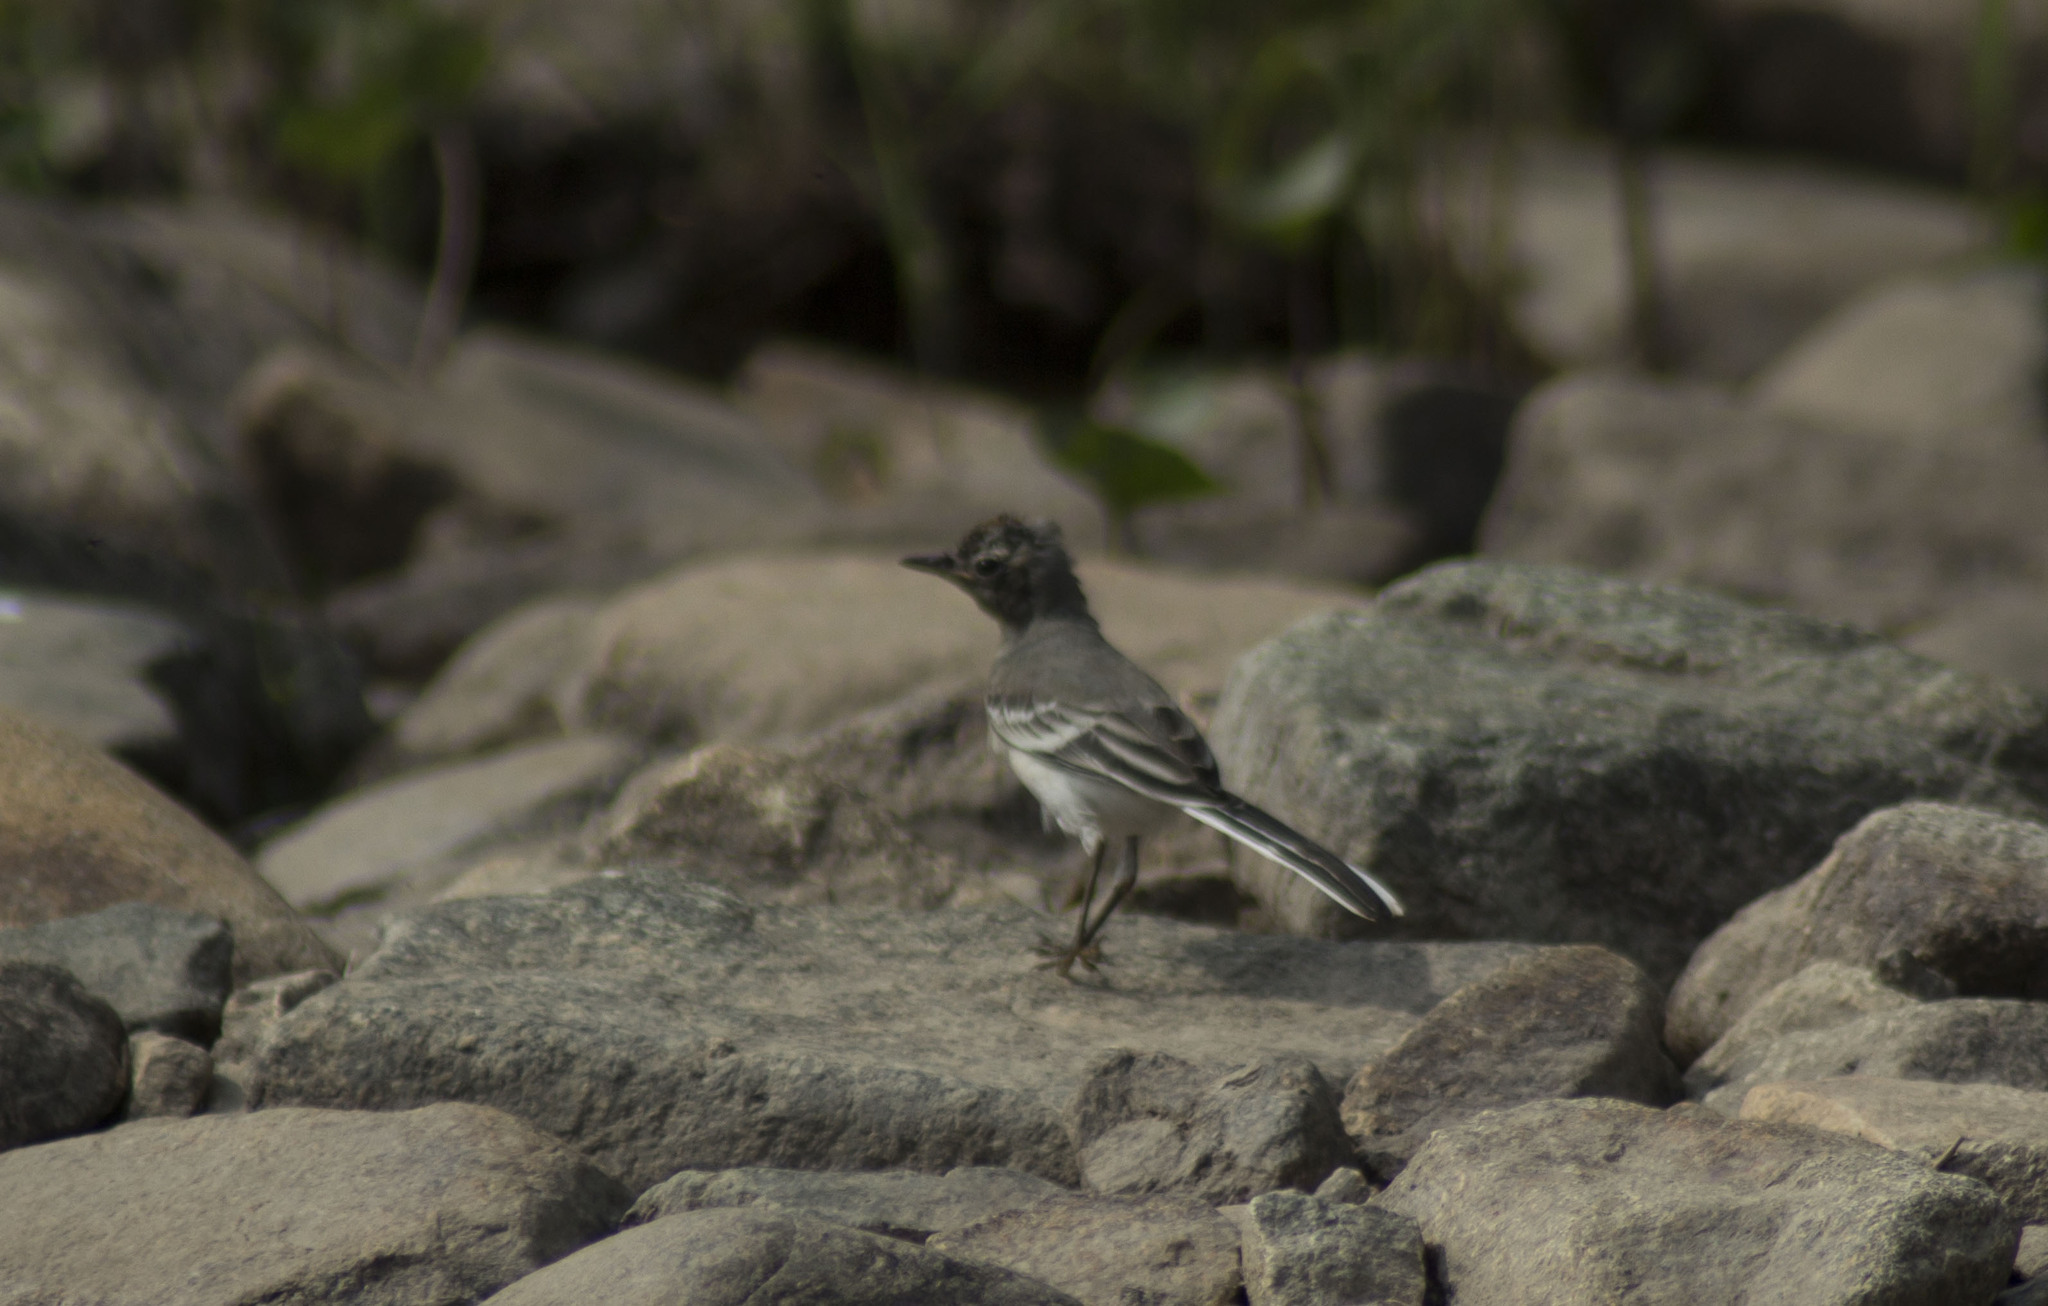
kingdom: Animalia
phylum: Chordata
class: Aves
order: Passeriformes
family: Motacillidae
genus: Motacilla
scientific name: Motacilla alba
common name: White wagtail
